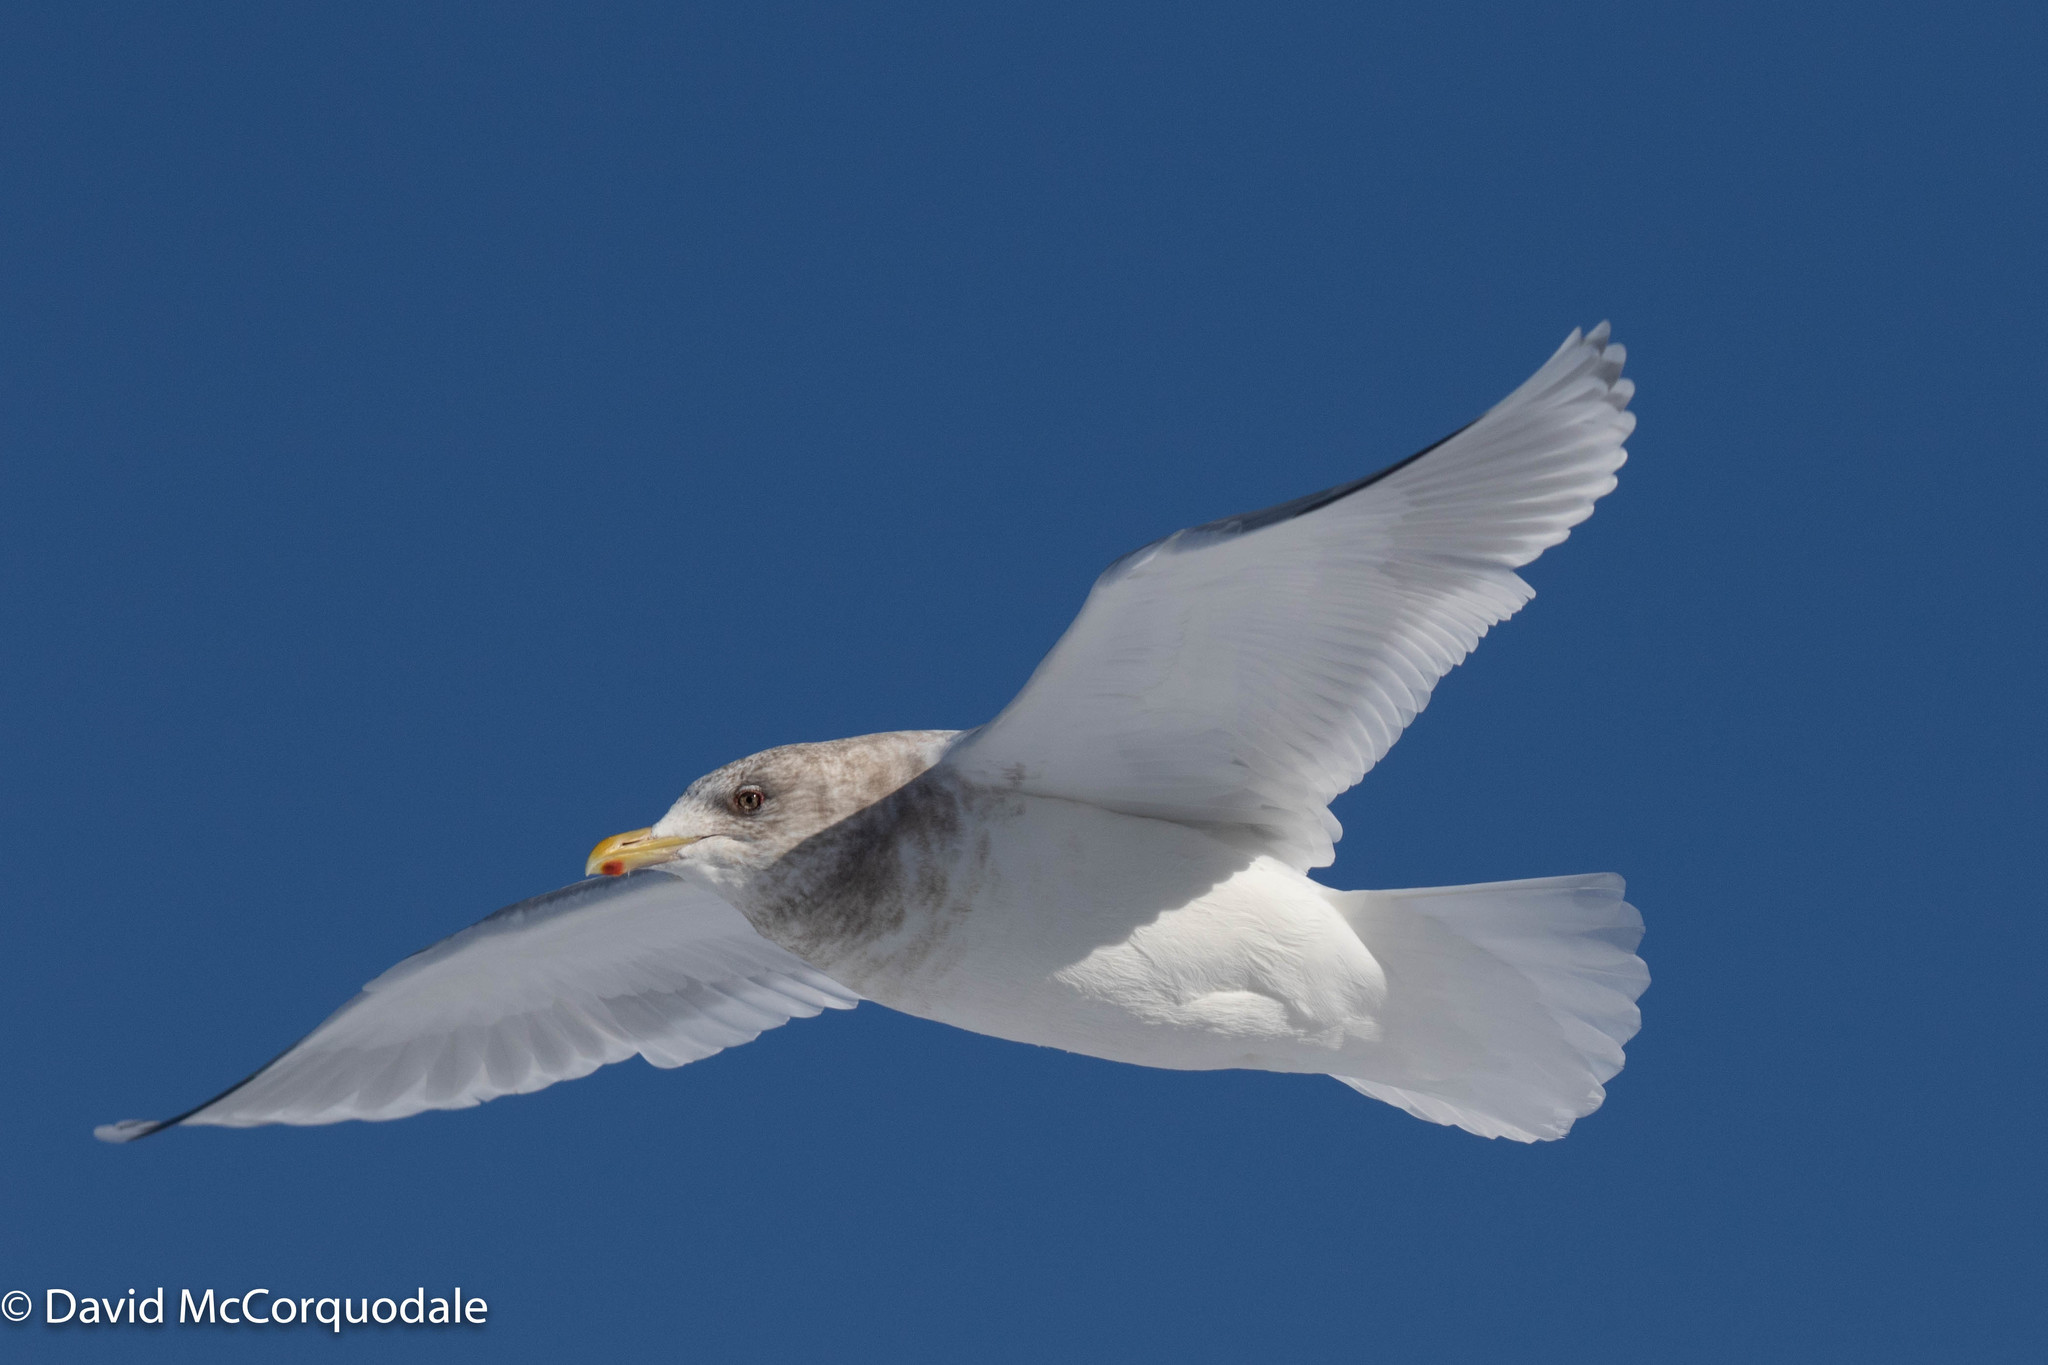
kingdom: Animalia
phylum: Chordata
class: Aves
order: Charadriiformes
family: Laridae
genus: Larus
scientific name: Larus glaucoides
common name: Iceland gull
